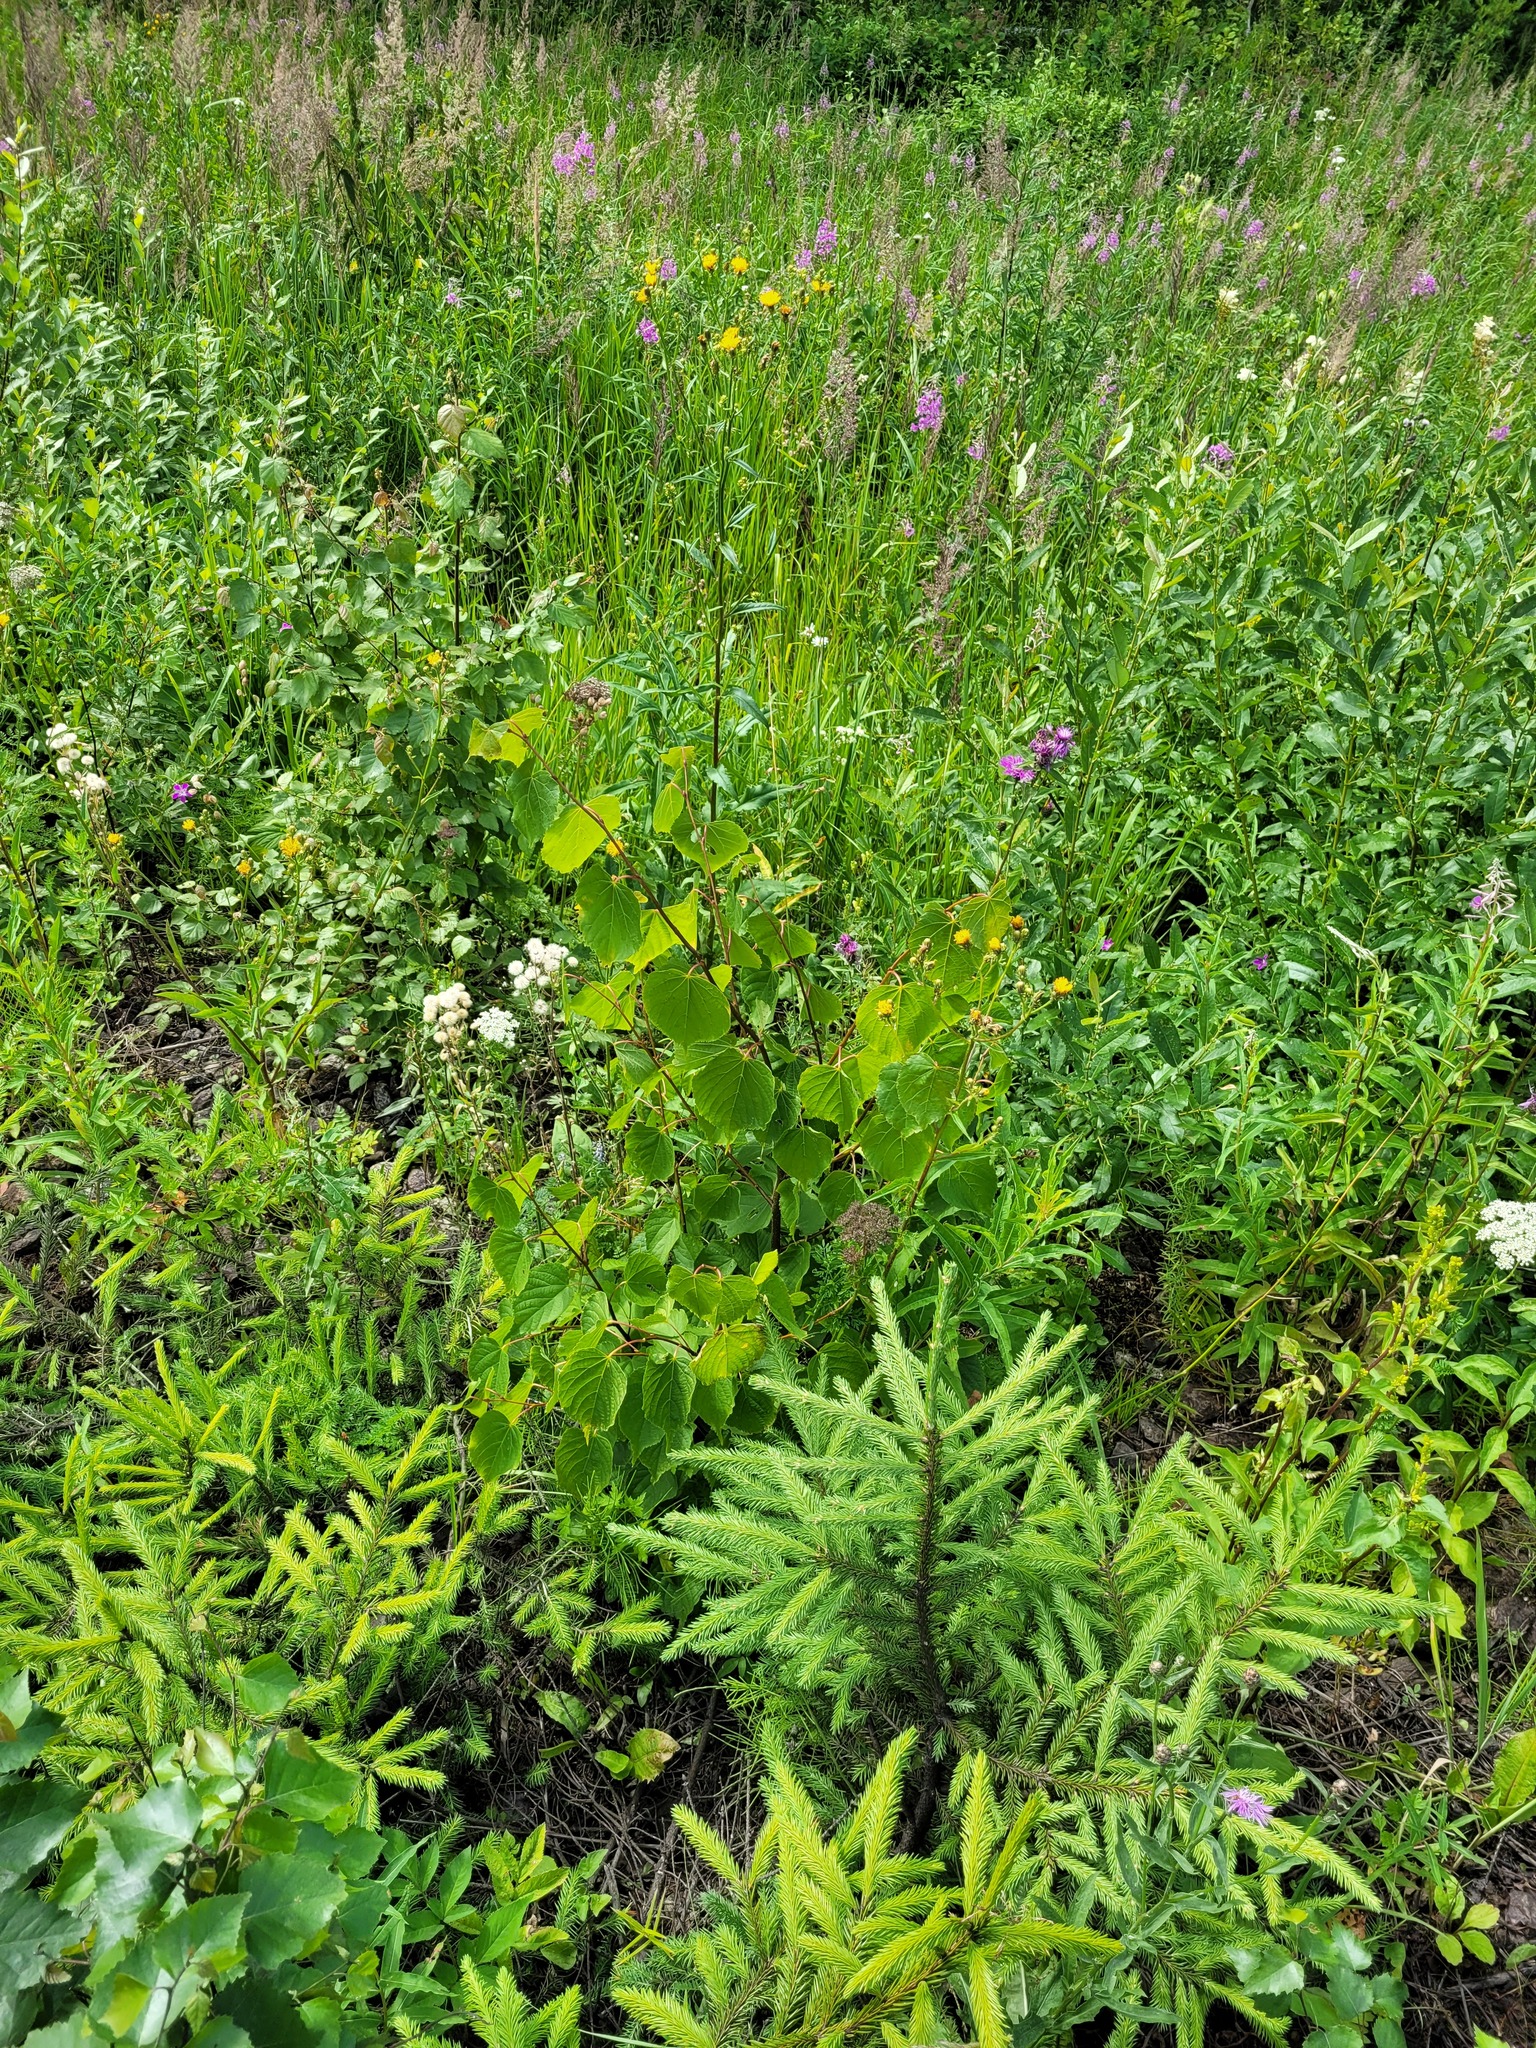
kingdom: Plantae
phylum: Tracheophyta
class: Magnoliopsida
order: Malvales
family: Malvaceae
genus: Tilia
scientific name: Tilia cordata
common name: Small-leaved lime
